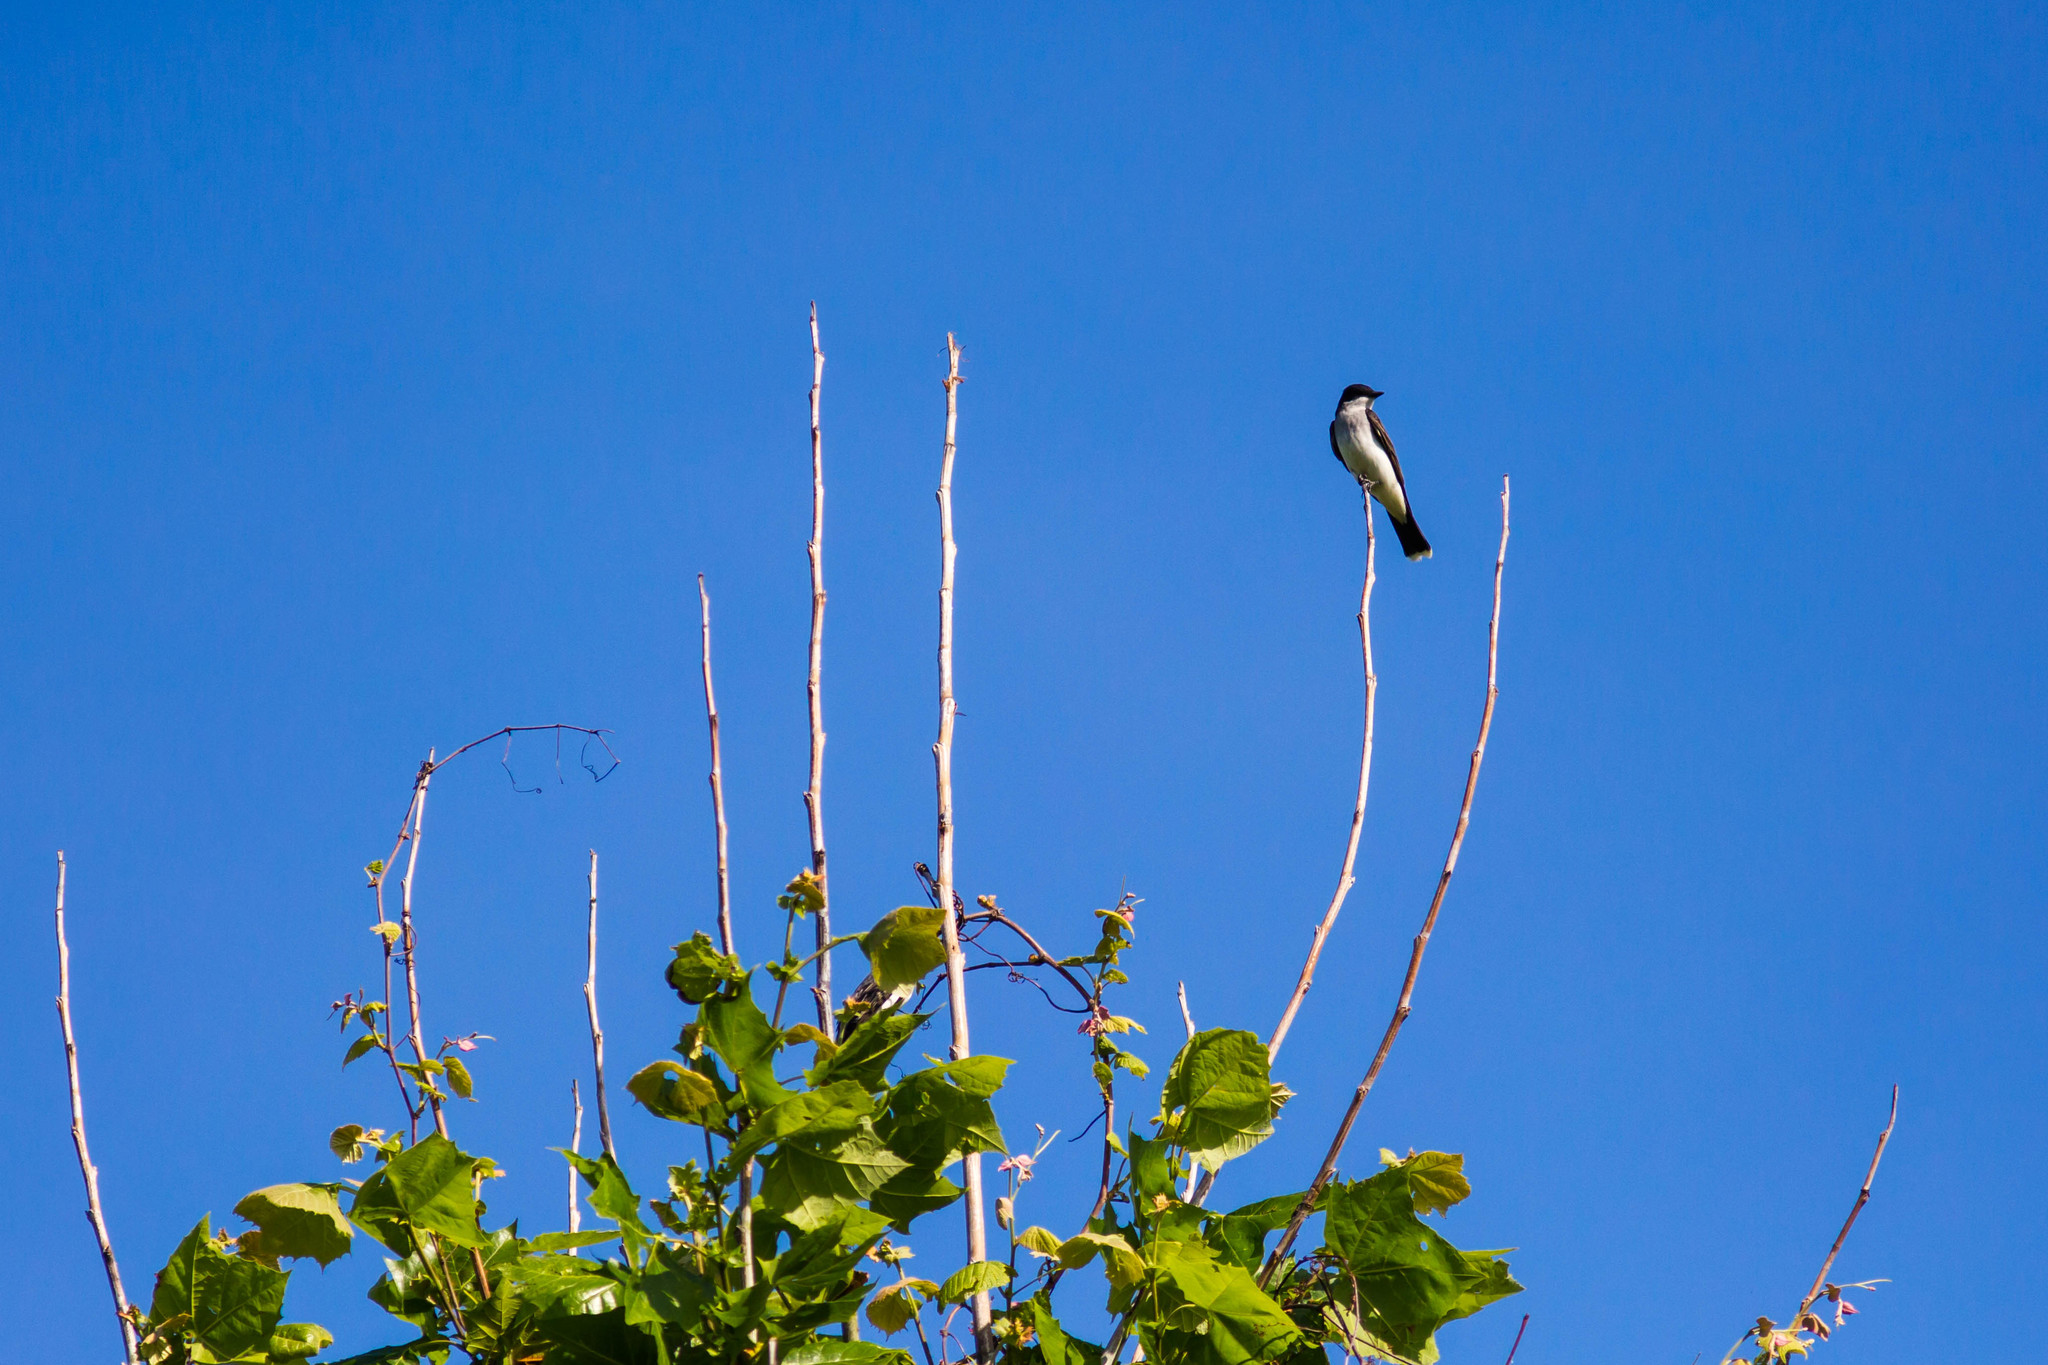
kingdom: Animalia
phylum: Chordata
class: Aves
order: Passeriformes
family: Tyrannidae
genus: Tyrannus
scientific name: Tyrannus tyrannus
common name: Eastern kingbird
